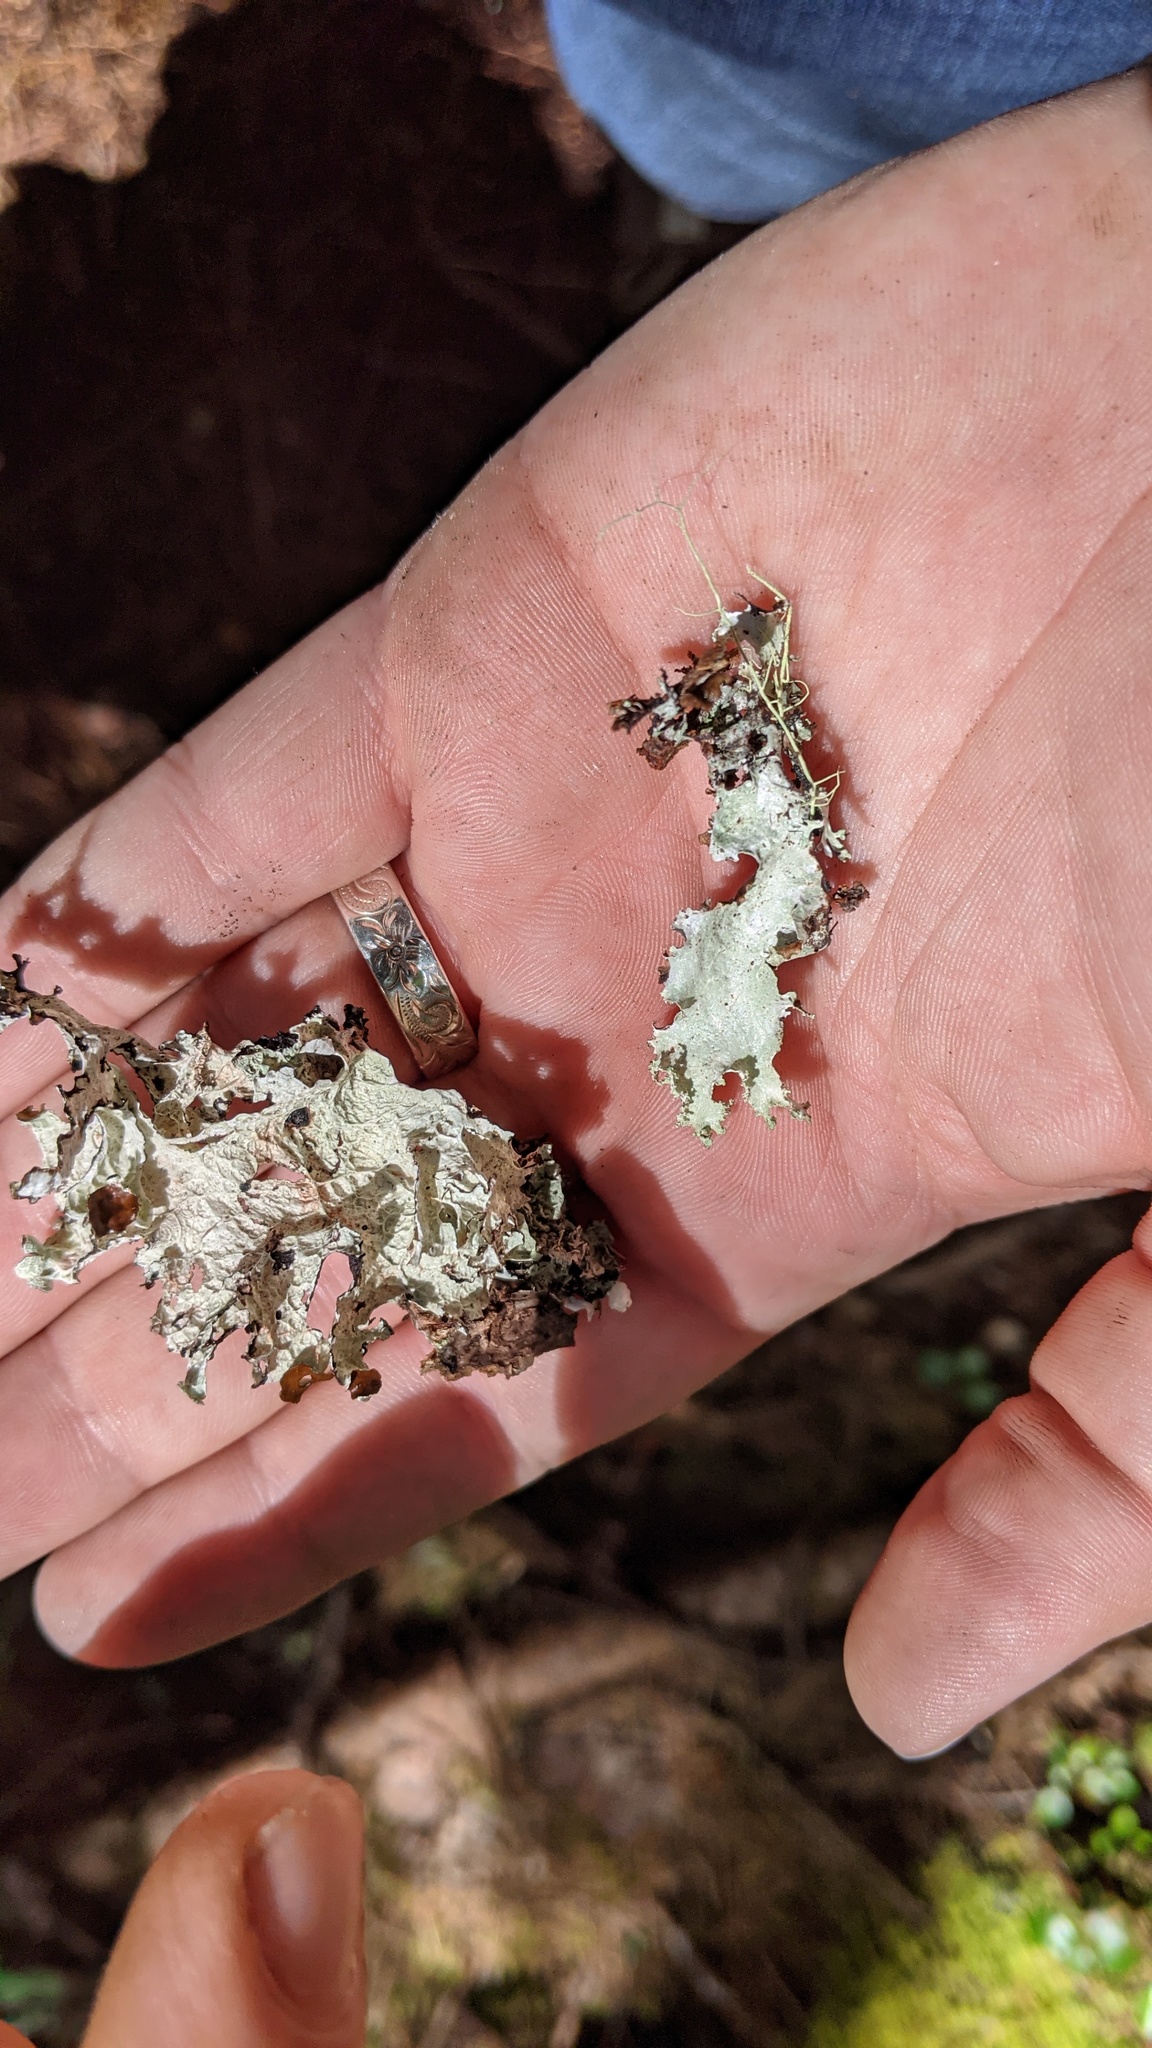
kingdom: Fungi
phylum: Ascomycota
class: Lecanoromycetes
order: Lecanorales
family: Parmeliaceae
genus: Platismatia
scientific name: Platismatia tuckermanii
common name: Crumpled rag lichen
